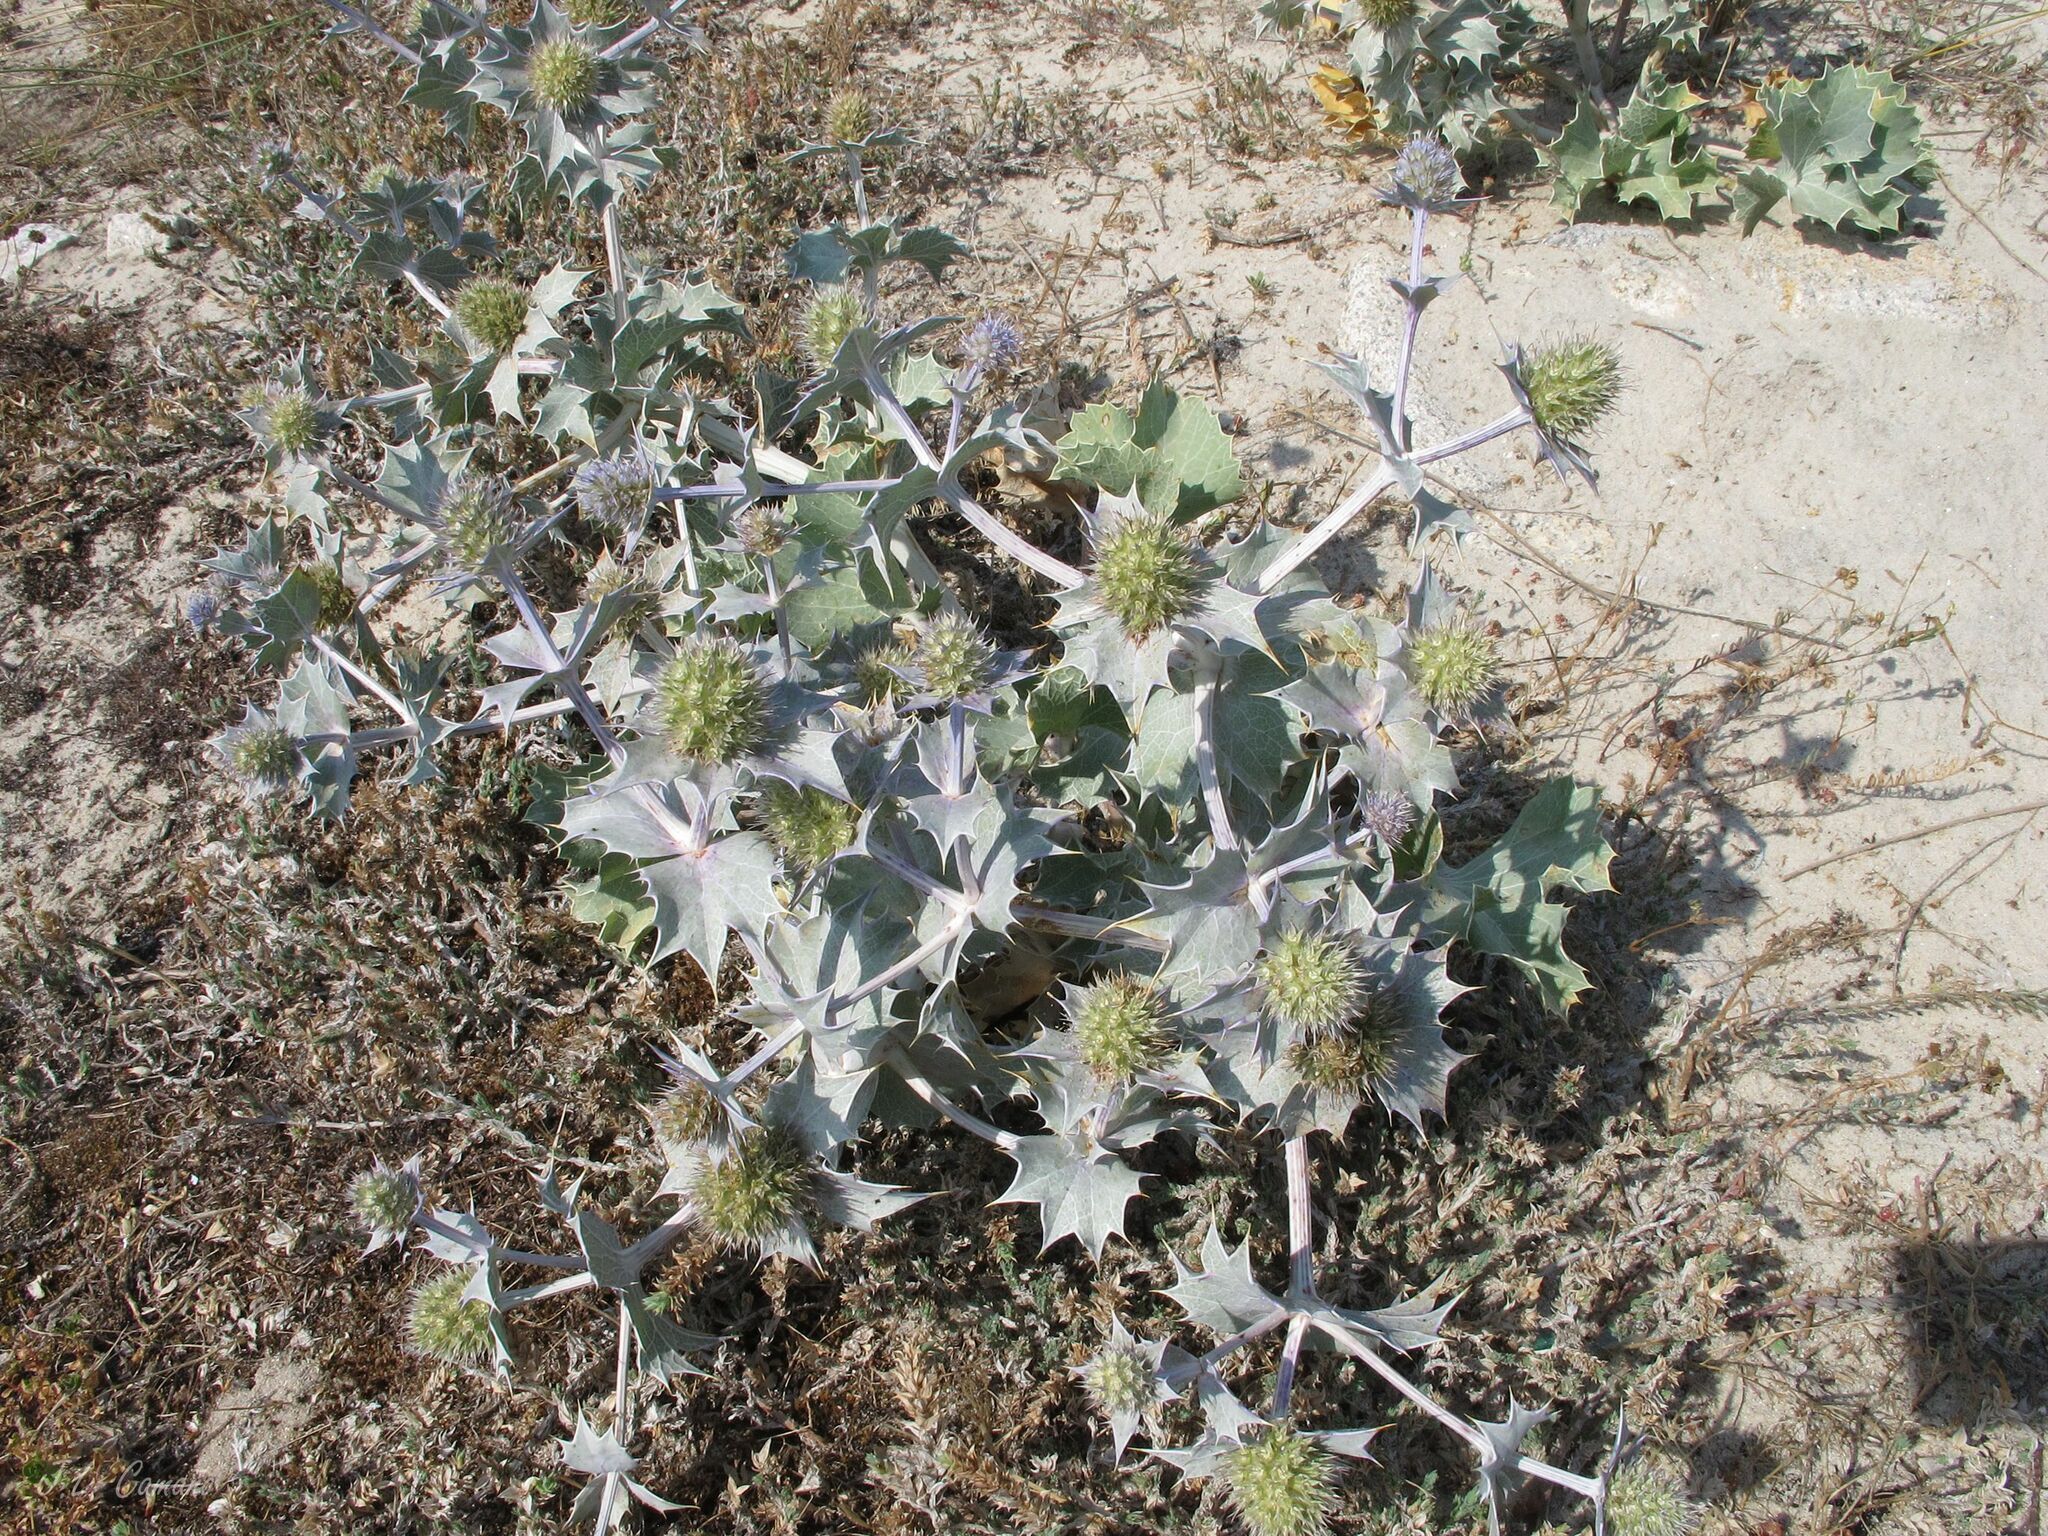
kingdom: Plantae
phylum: Tracheophyta
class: Magnoliopsida
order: Apiales
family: Apiaceae
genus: Eryngium
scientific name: Eryngium maritimum
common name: Sea-holly
